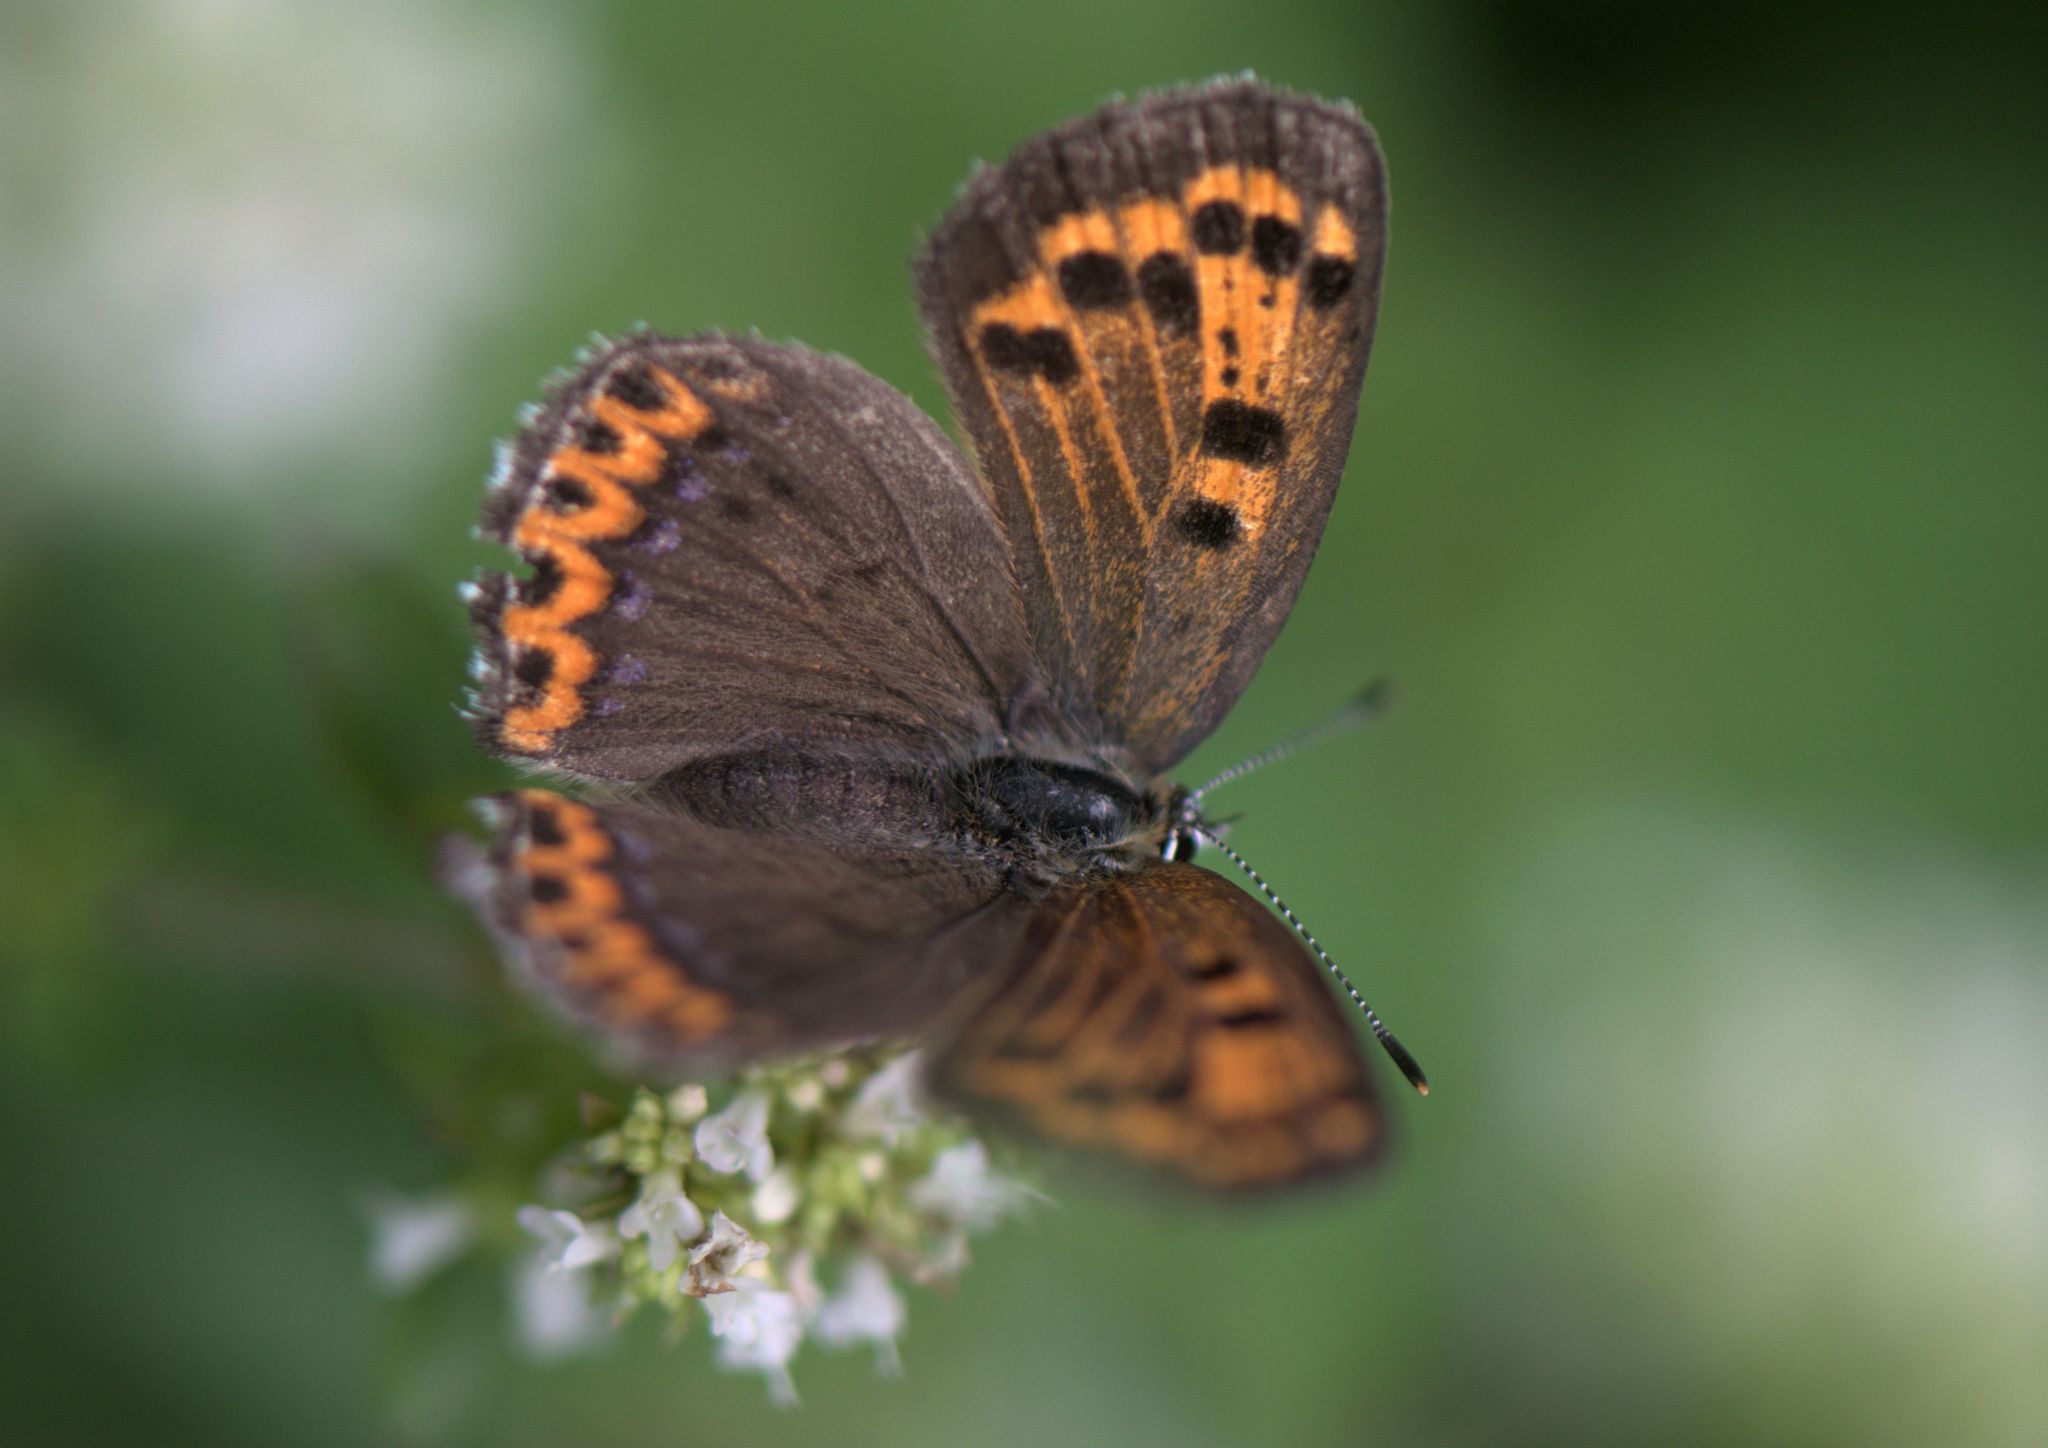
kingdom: Animalia
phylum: Arthropoda
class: Insecta
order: Lepidoptera
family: Lycaenidae
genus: Lycaena
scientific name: Lycaena panava
